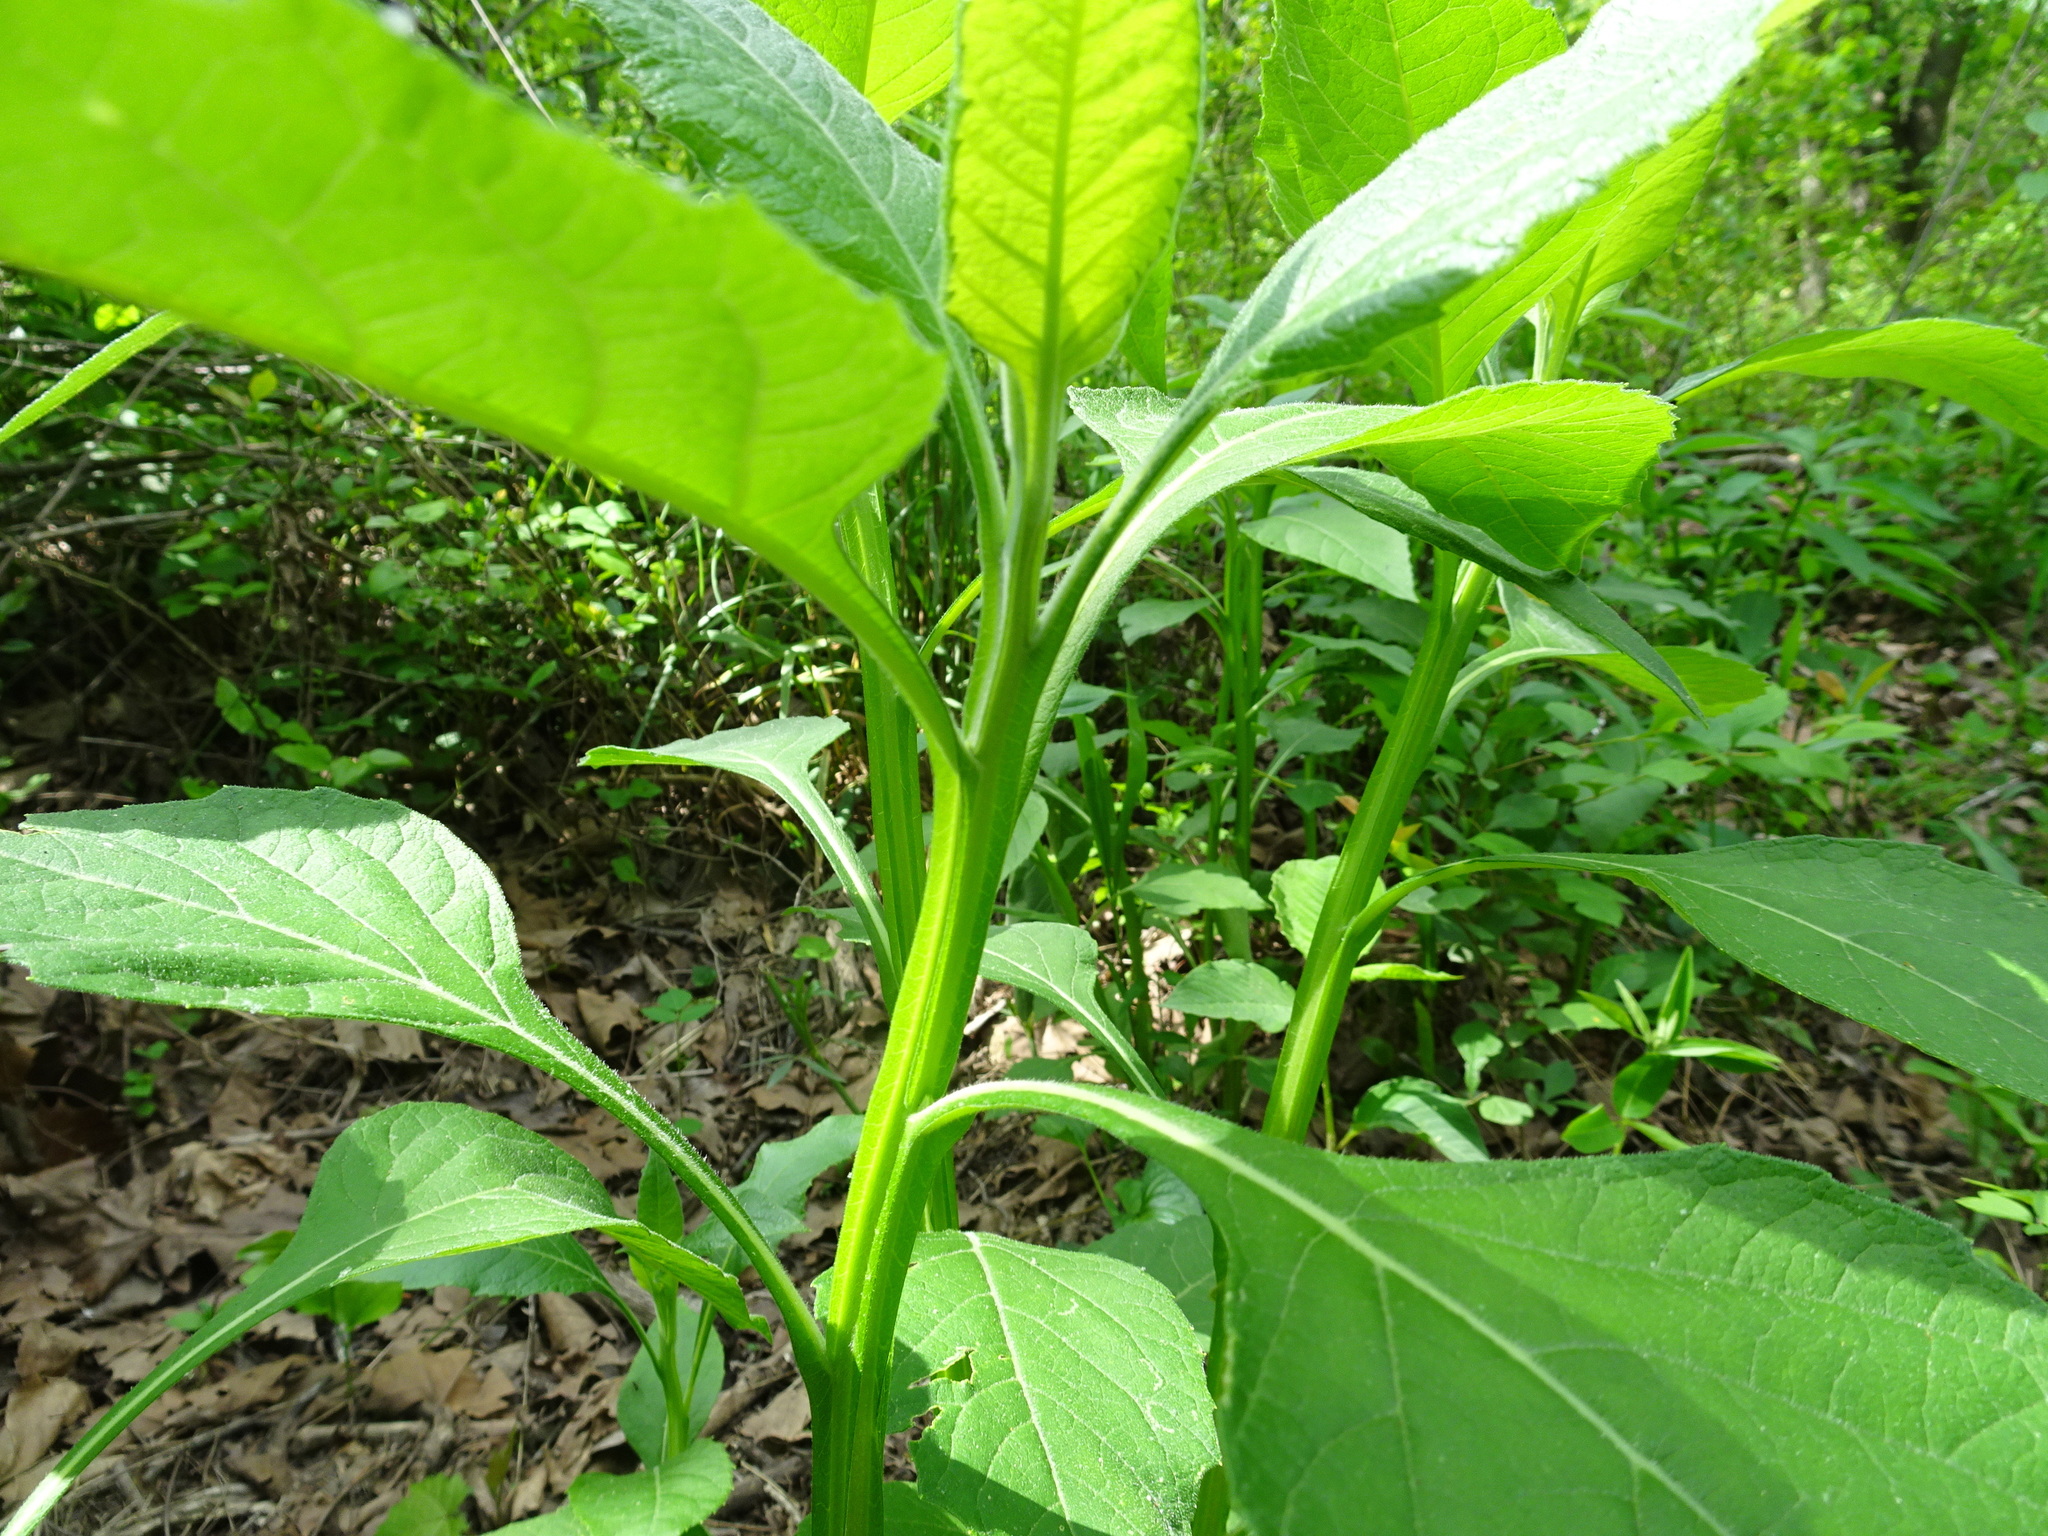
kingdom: Plantae
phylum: Tracheophyta
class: Magnoliopsida
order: Asterales
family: Asteraceae
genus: Verbesina
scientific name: Verbesina virginica
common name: Frostweed
